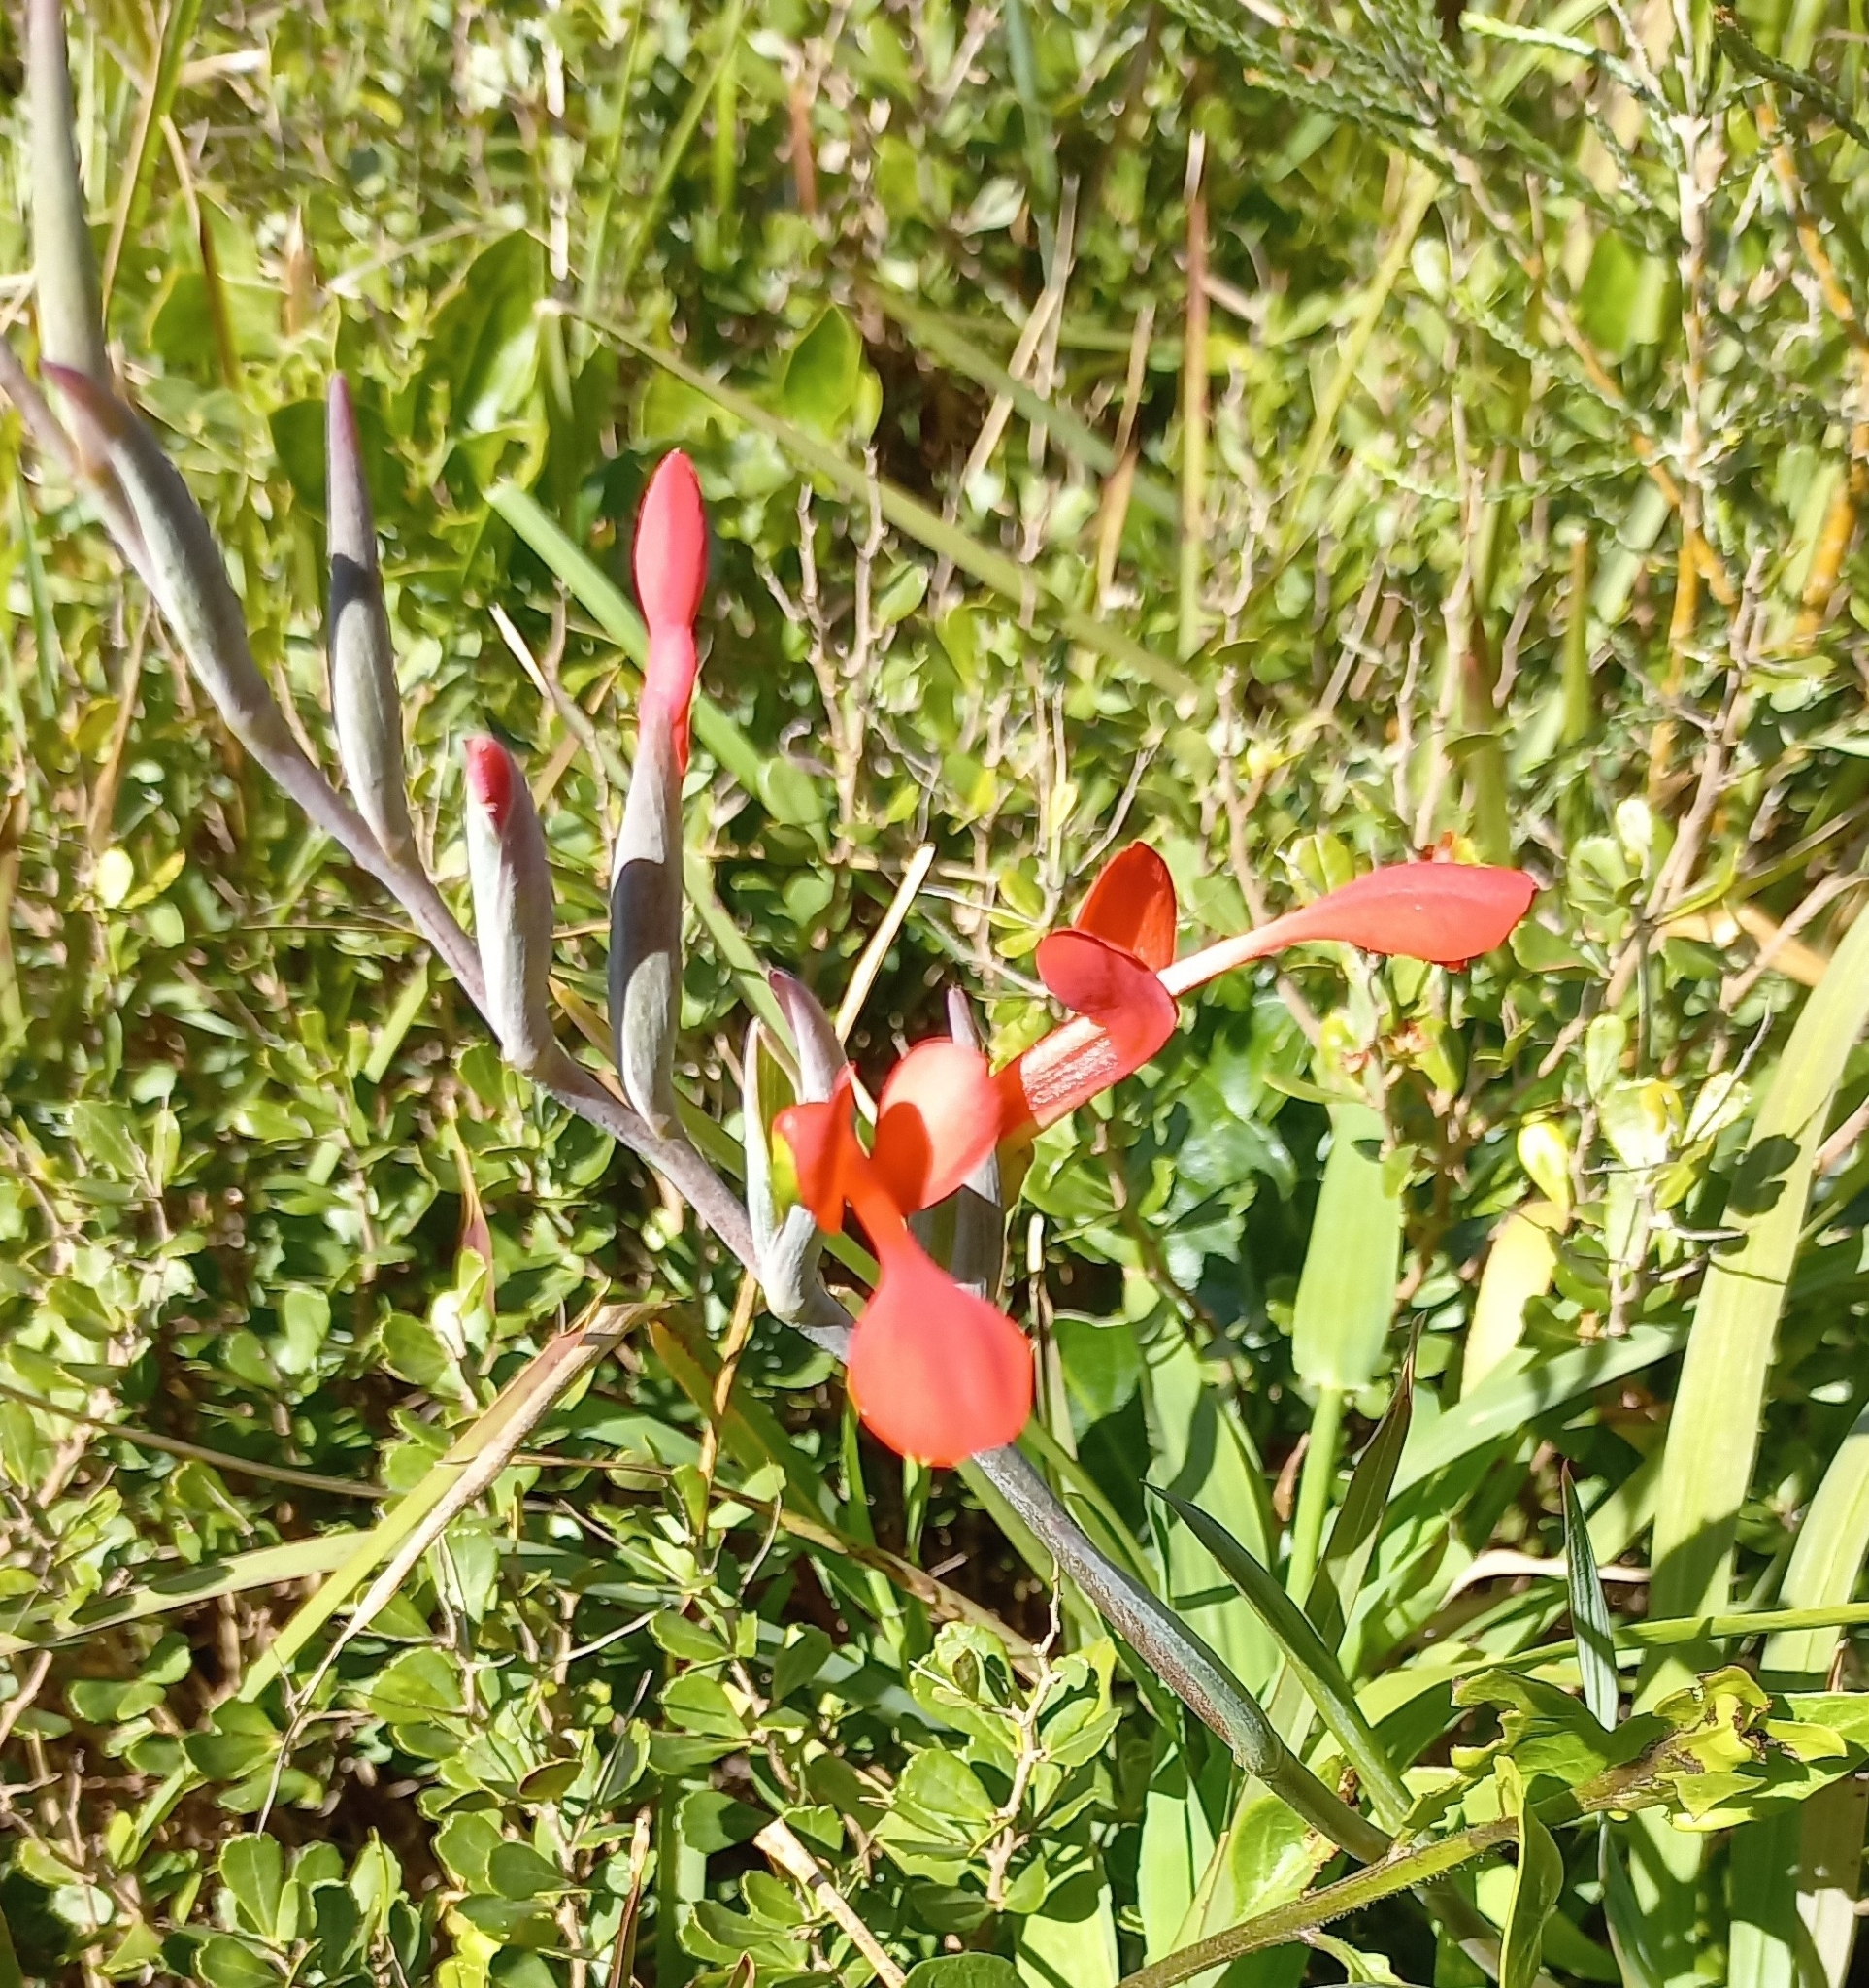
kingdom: Plantae
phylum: Tracheophyta
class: Liliopsida
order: Asparagales
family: Iridaceae
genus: Gladiolus
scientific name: Gladiolus cunonius
